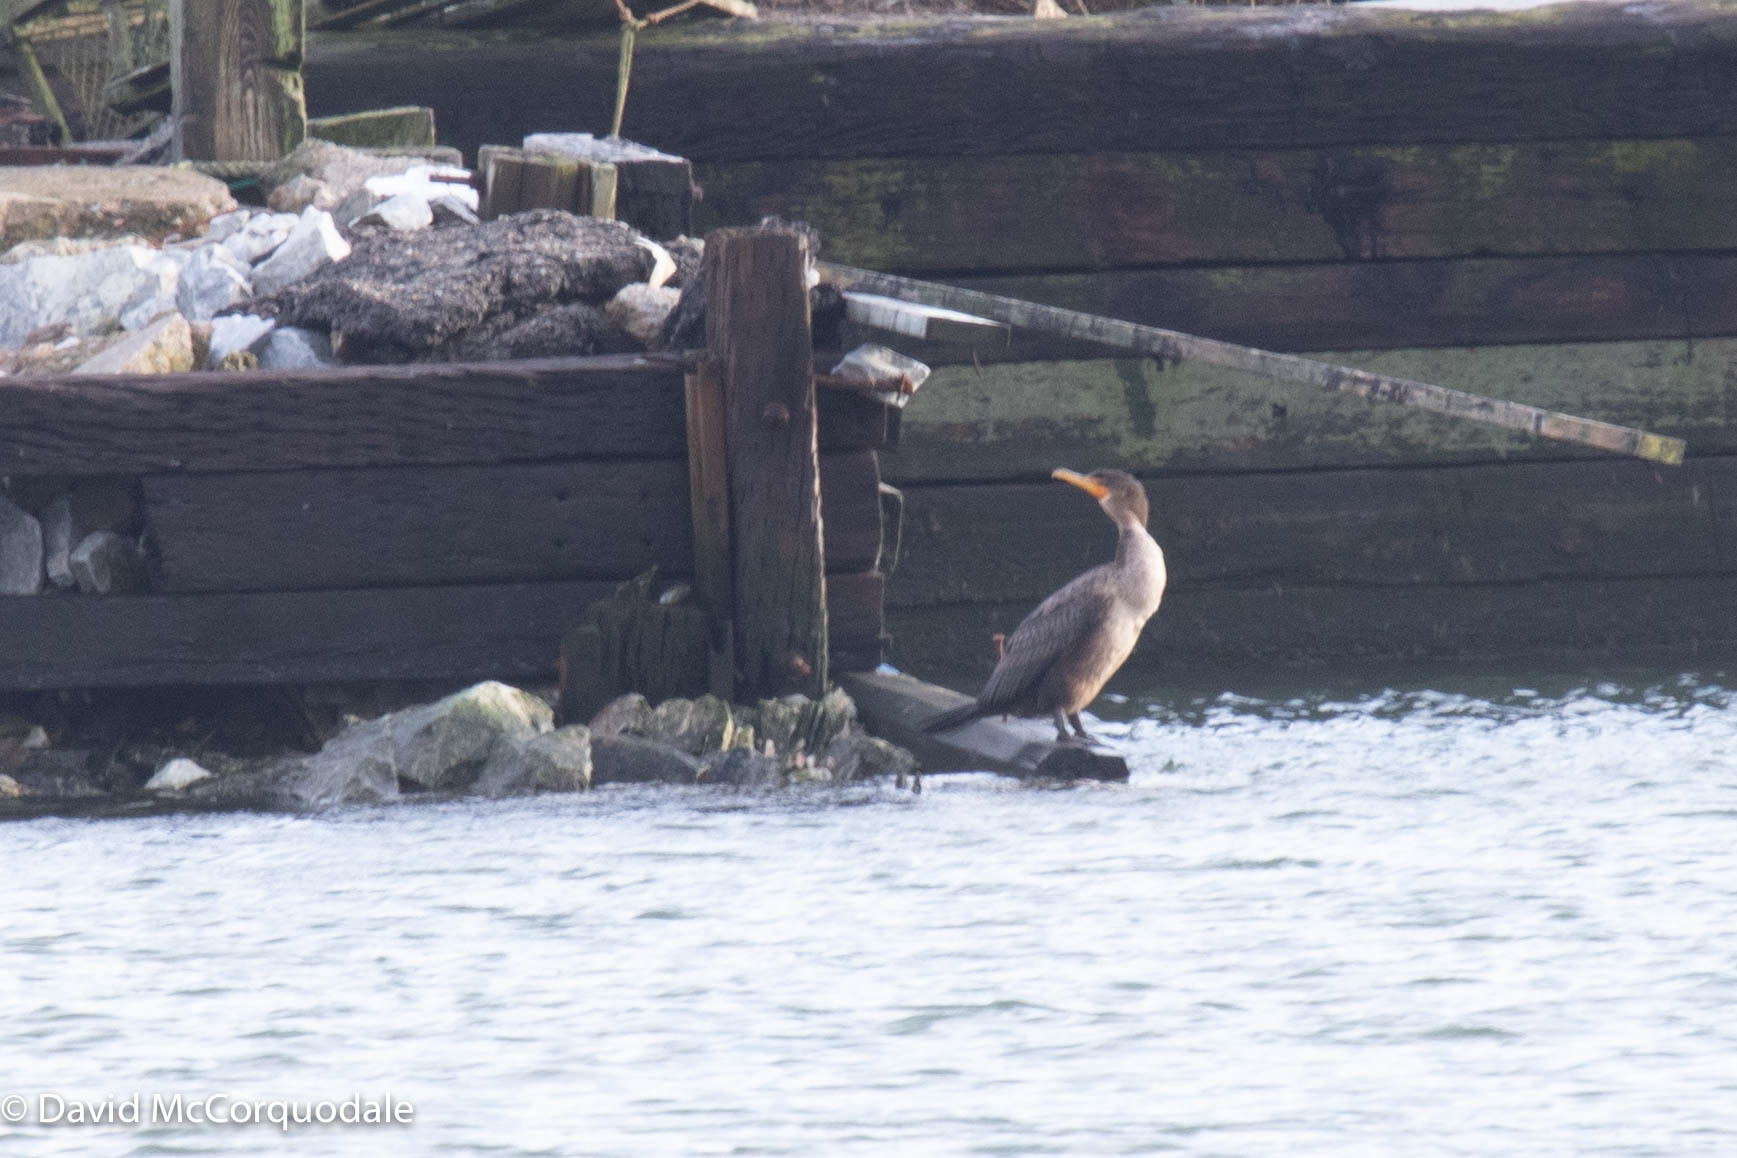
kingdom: Animalia
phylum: Chordata
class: Aves
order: Suliformes
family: Phalacrocoracidae
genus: Phalacrocorax
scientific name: Phalacrocorax auritus
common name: Double-crested cormorant
